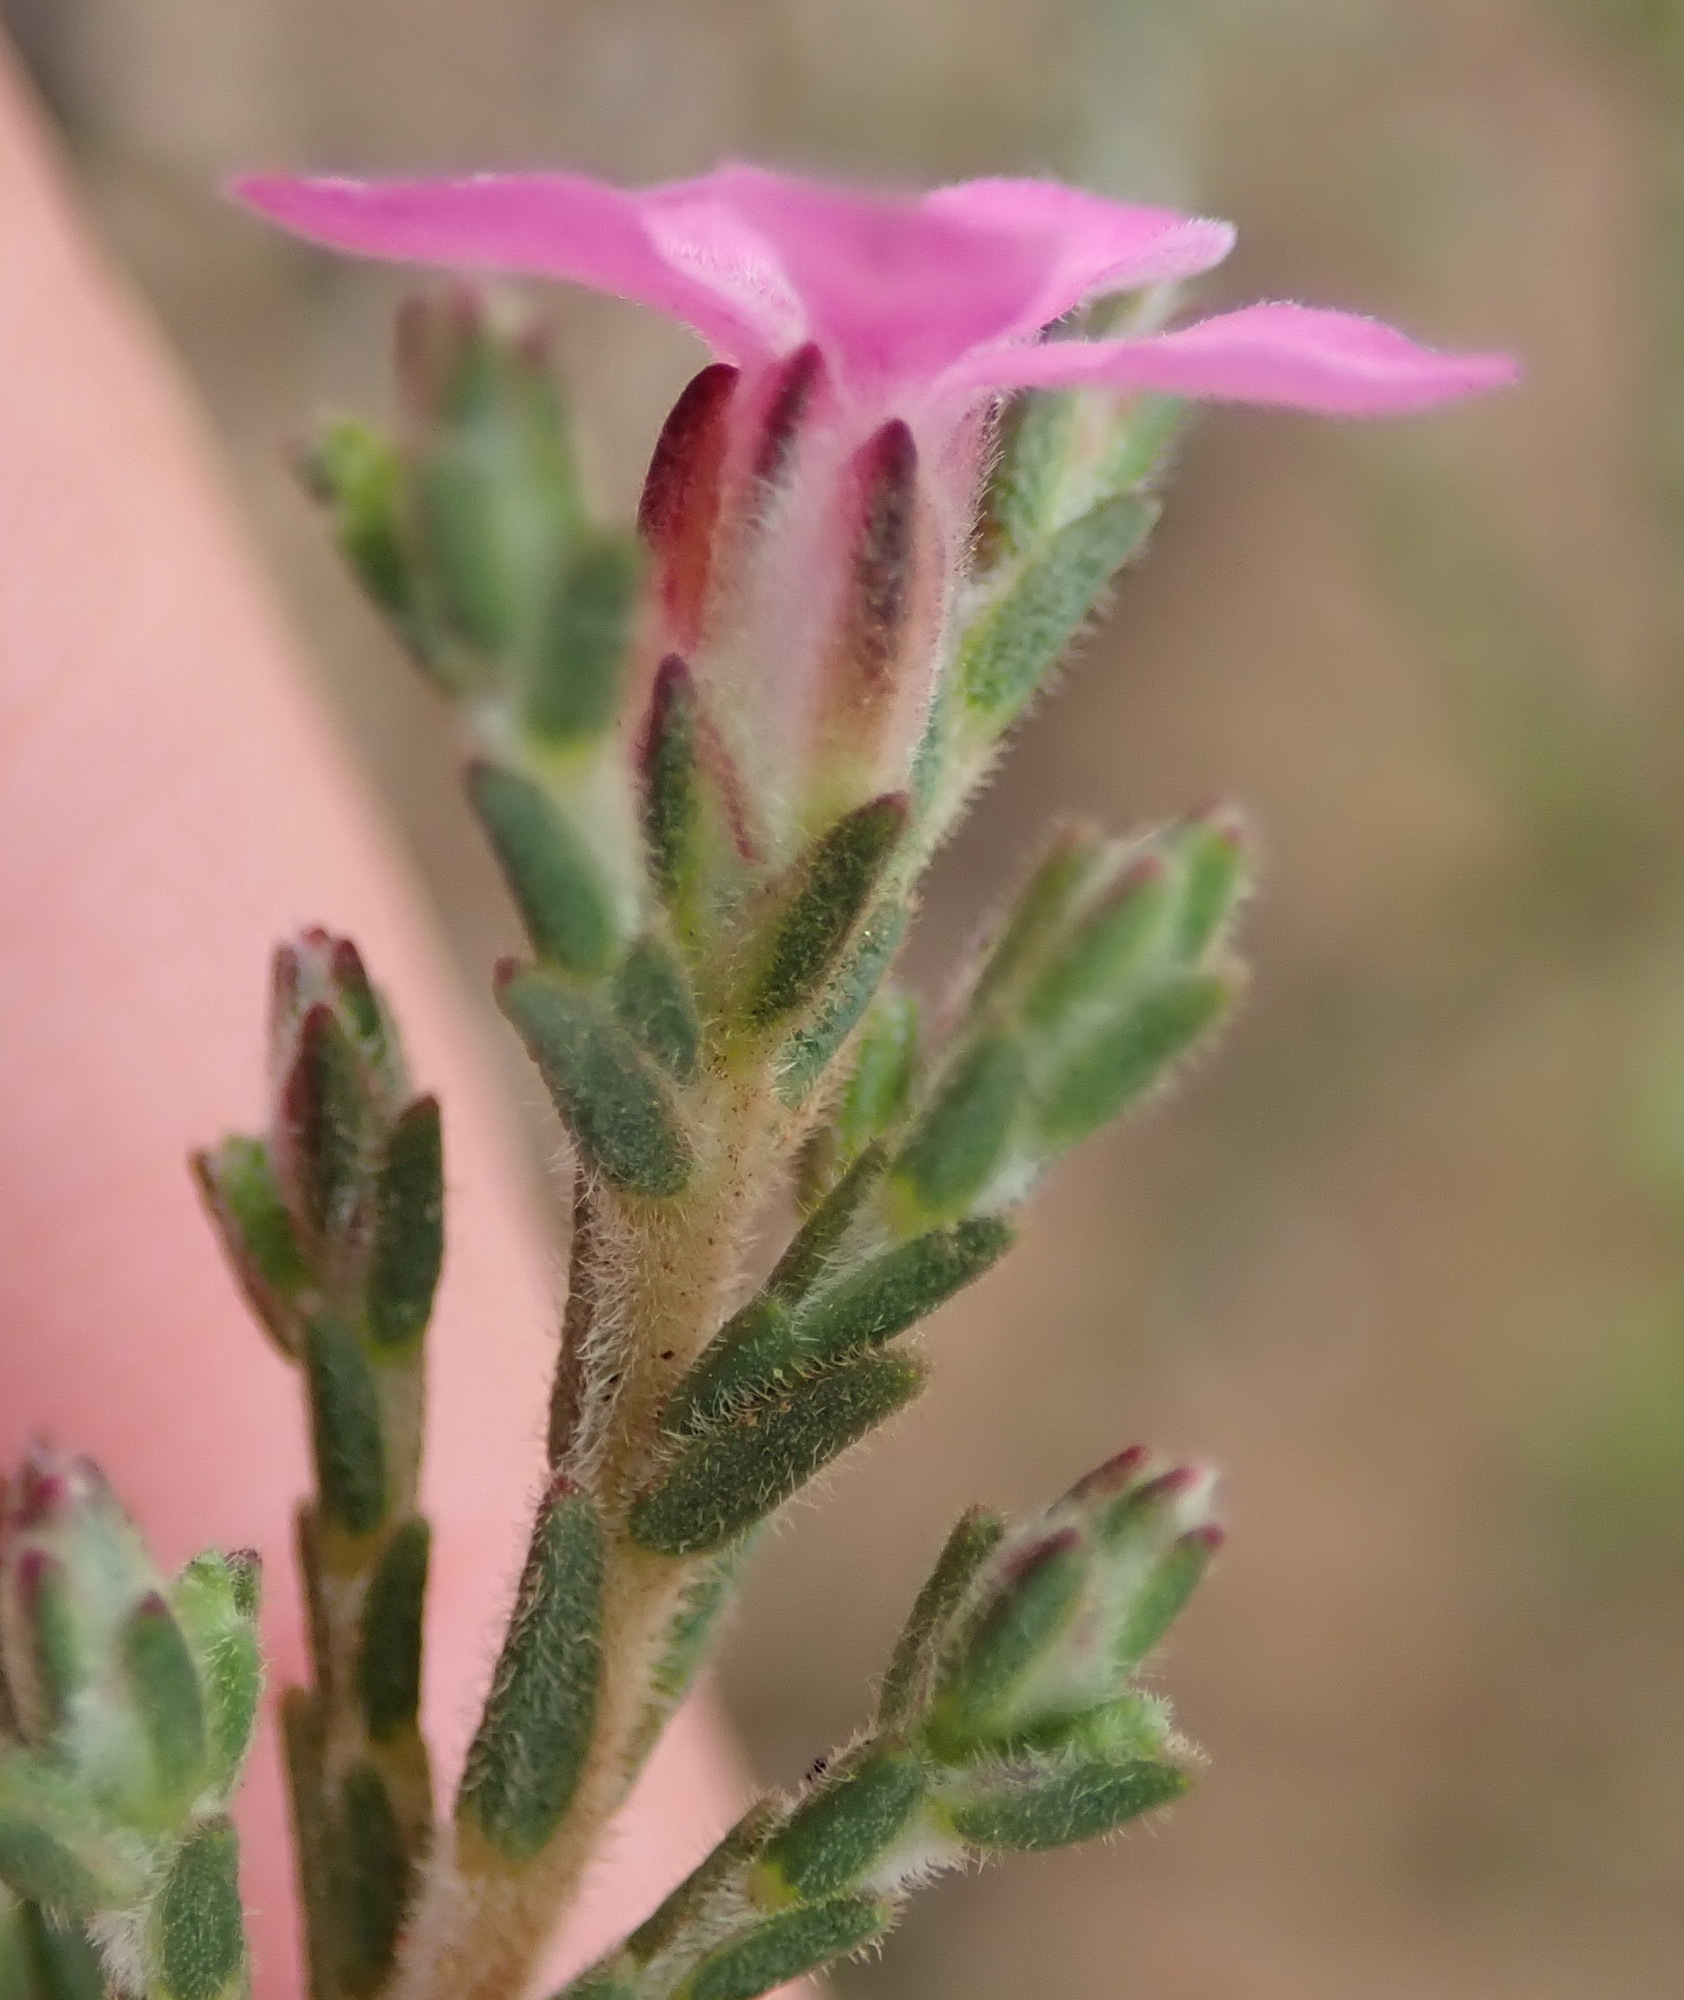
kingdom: Plantae
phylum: Tracheophyta
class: Magnoliopsida
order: Sapindales
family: Rutaceae
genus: Acmadenia
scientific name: Acmadenia laxa
